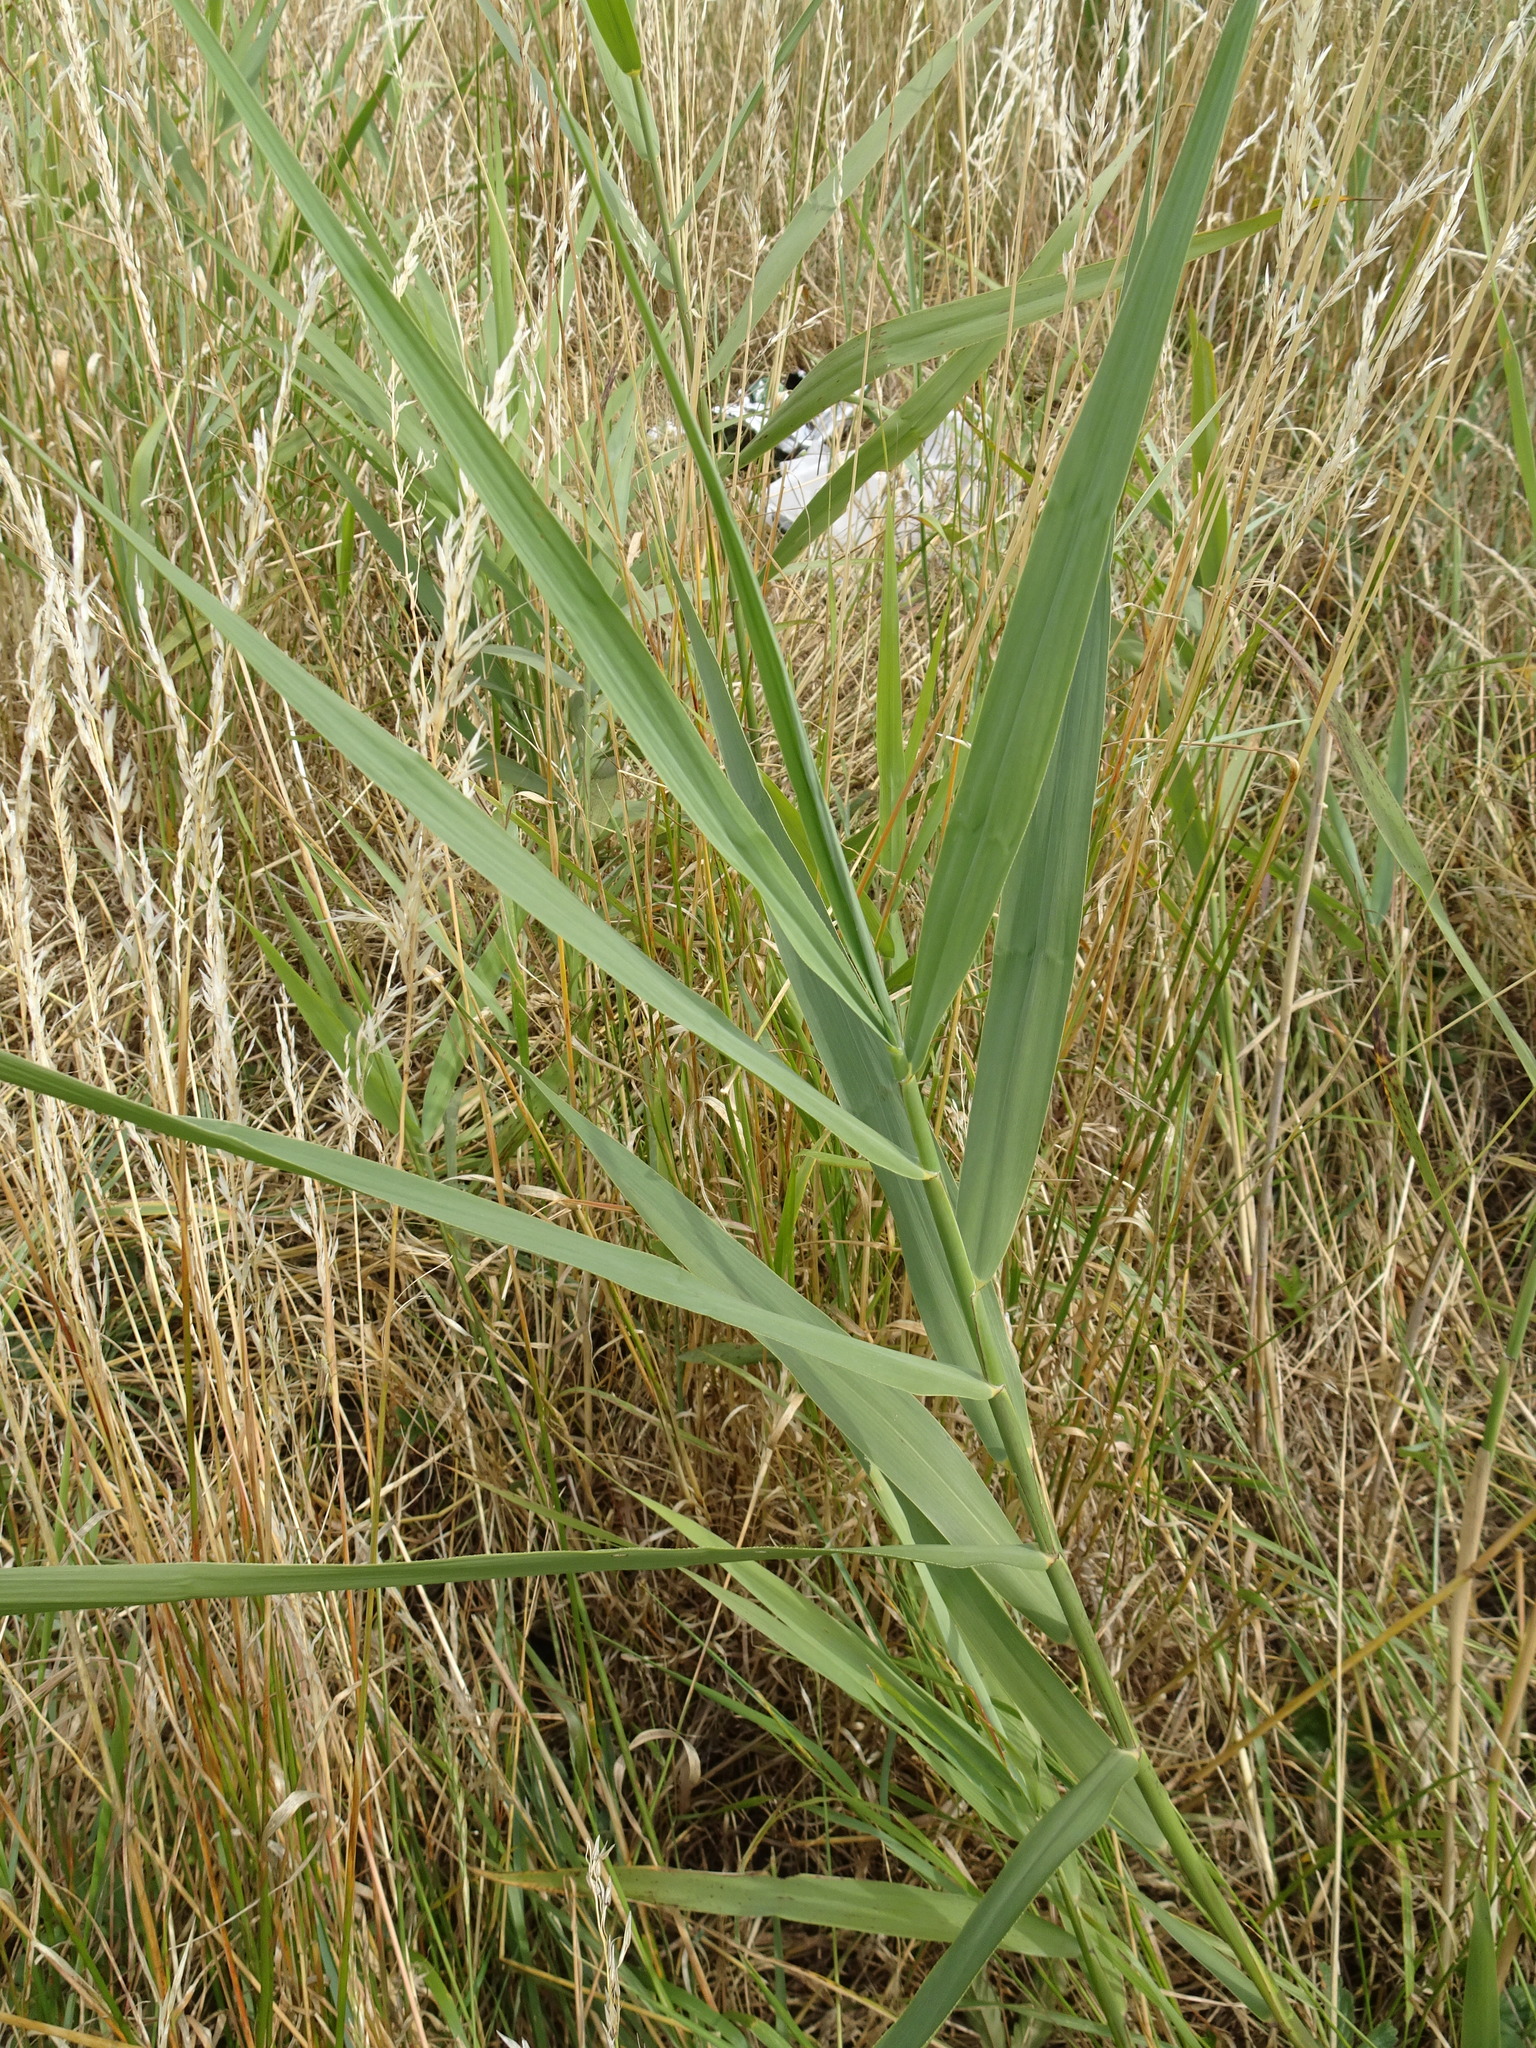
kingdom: Plantae
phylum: Tracheophyta
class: Liliopsida
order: Poales
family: Poaceae
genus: Phragmites
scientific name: Phragmites australis
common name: Common reed
